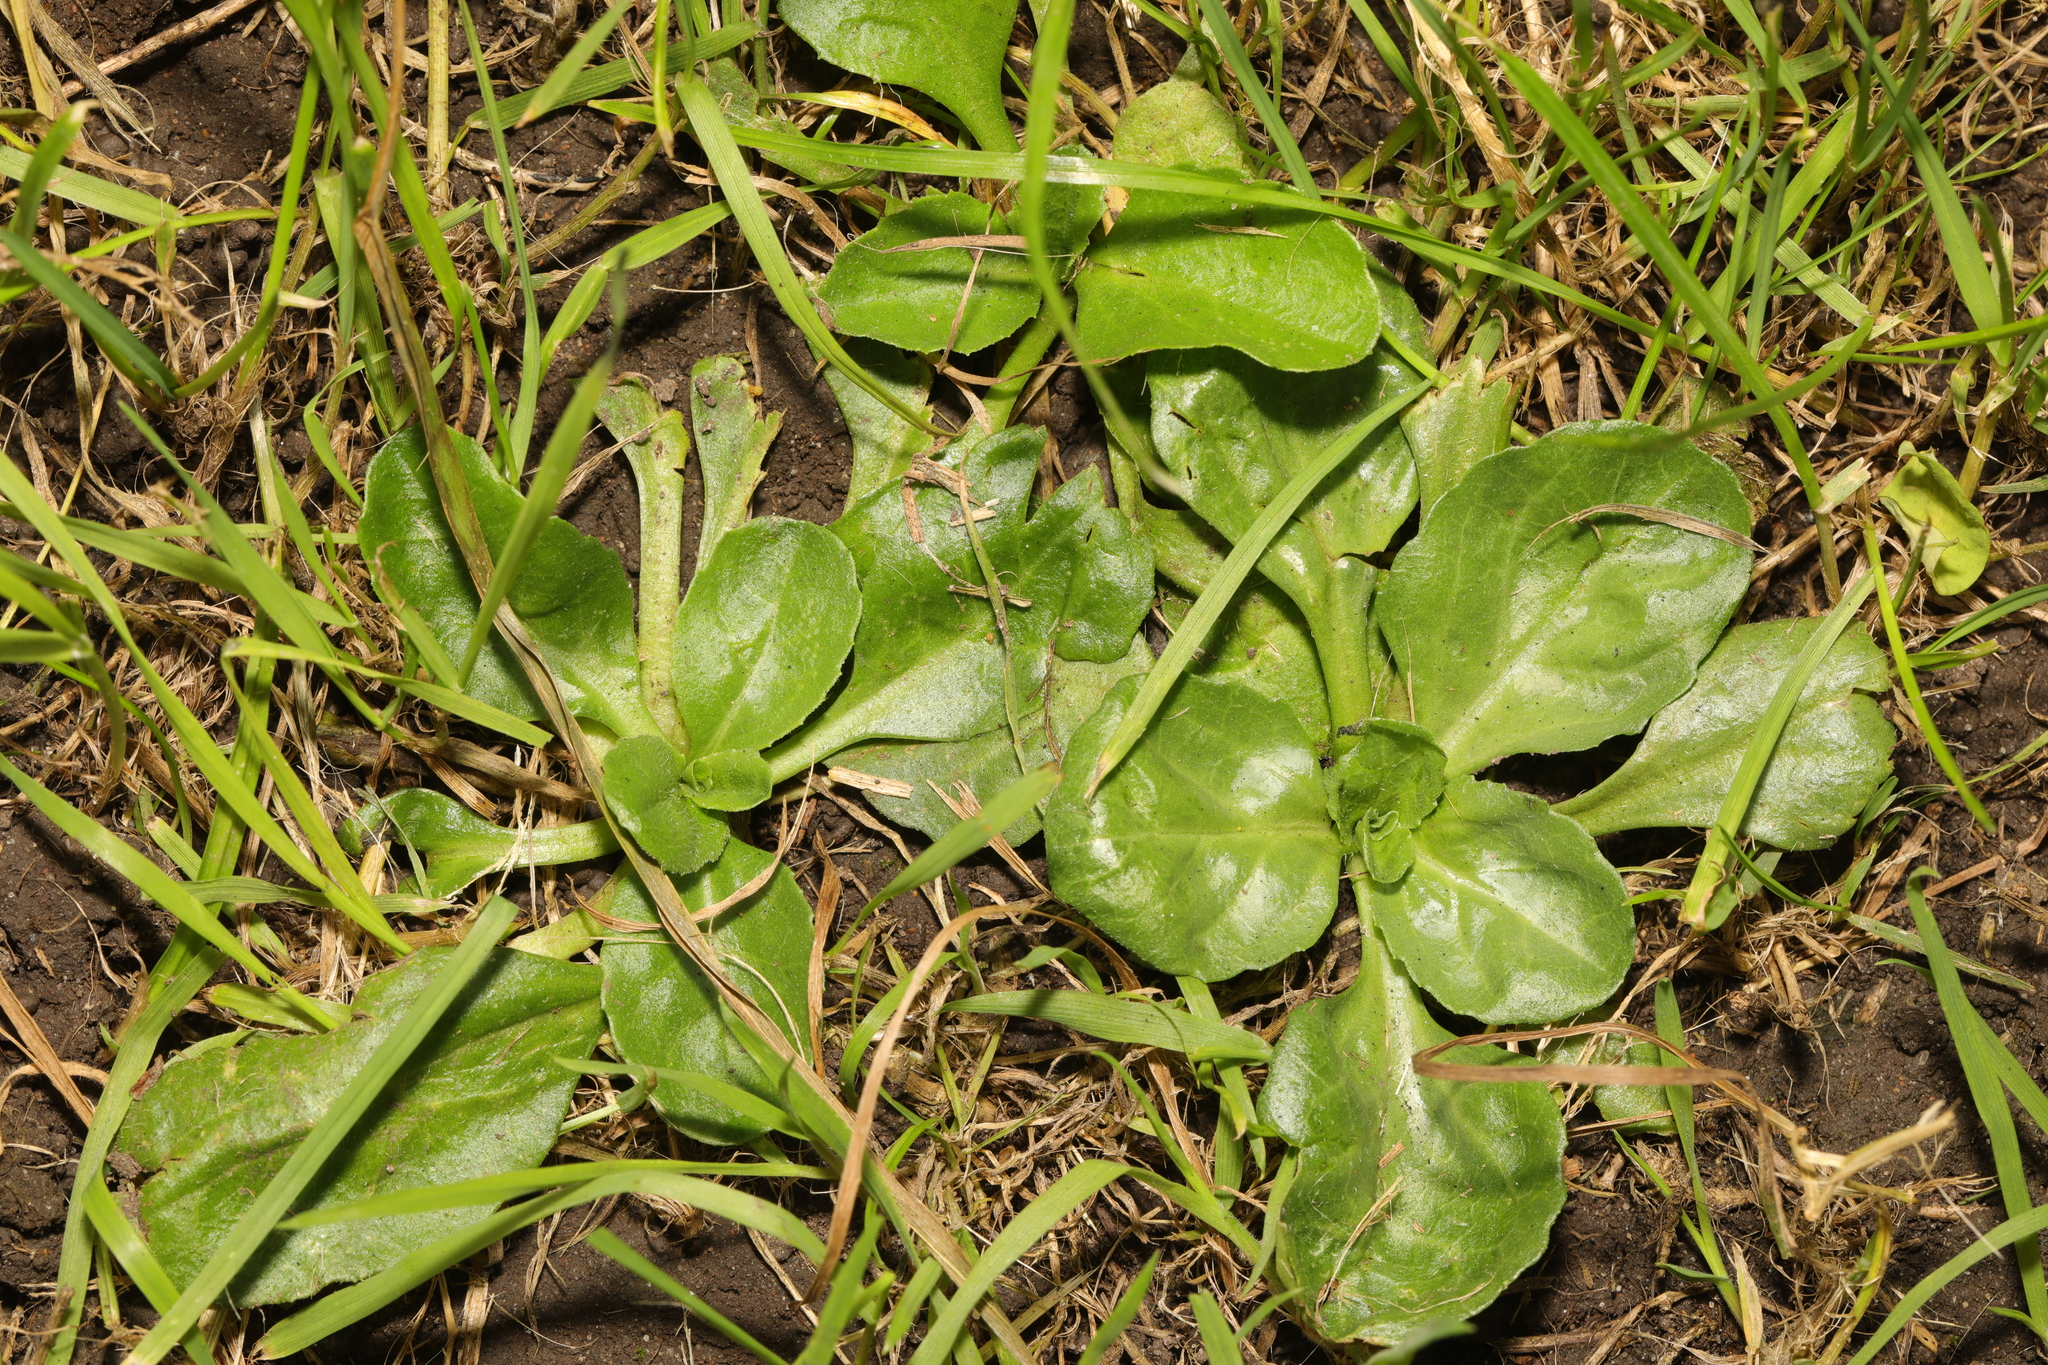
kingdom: Plantae
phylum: Tracheophyta
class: Magnoliopsida
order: Asterales
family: Asteraceae
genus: Bellis
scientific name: Bellis perennis
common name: Lawndaisy
